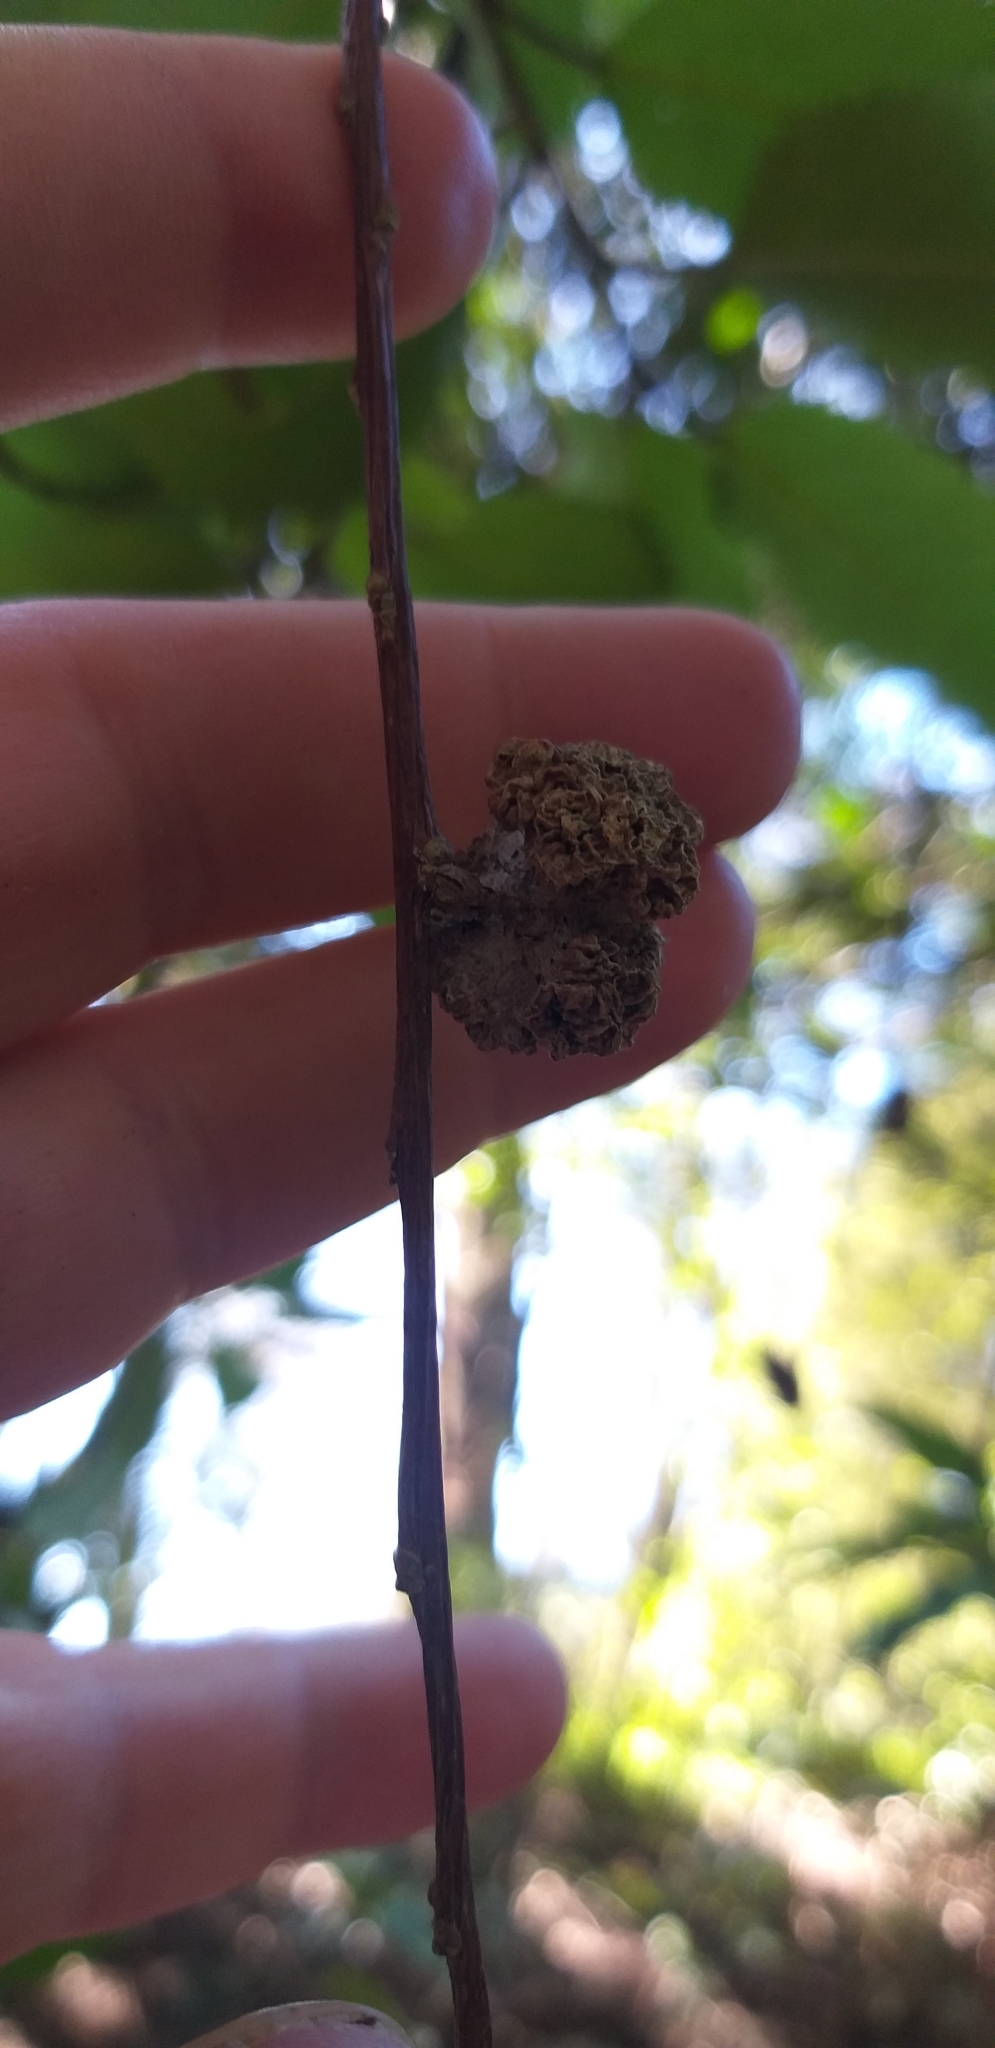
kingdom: Animalia
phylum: Arthropoda
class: Arachnida
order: Trombidiformes
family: Eriophyidae
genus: Eriophyes
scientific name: Eriophyes hoheriae
